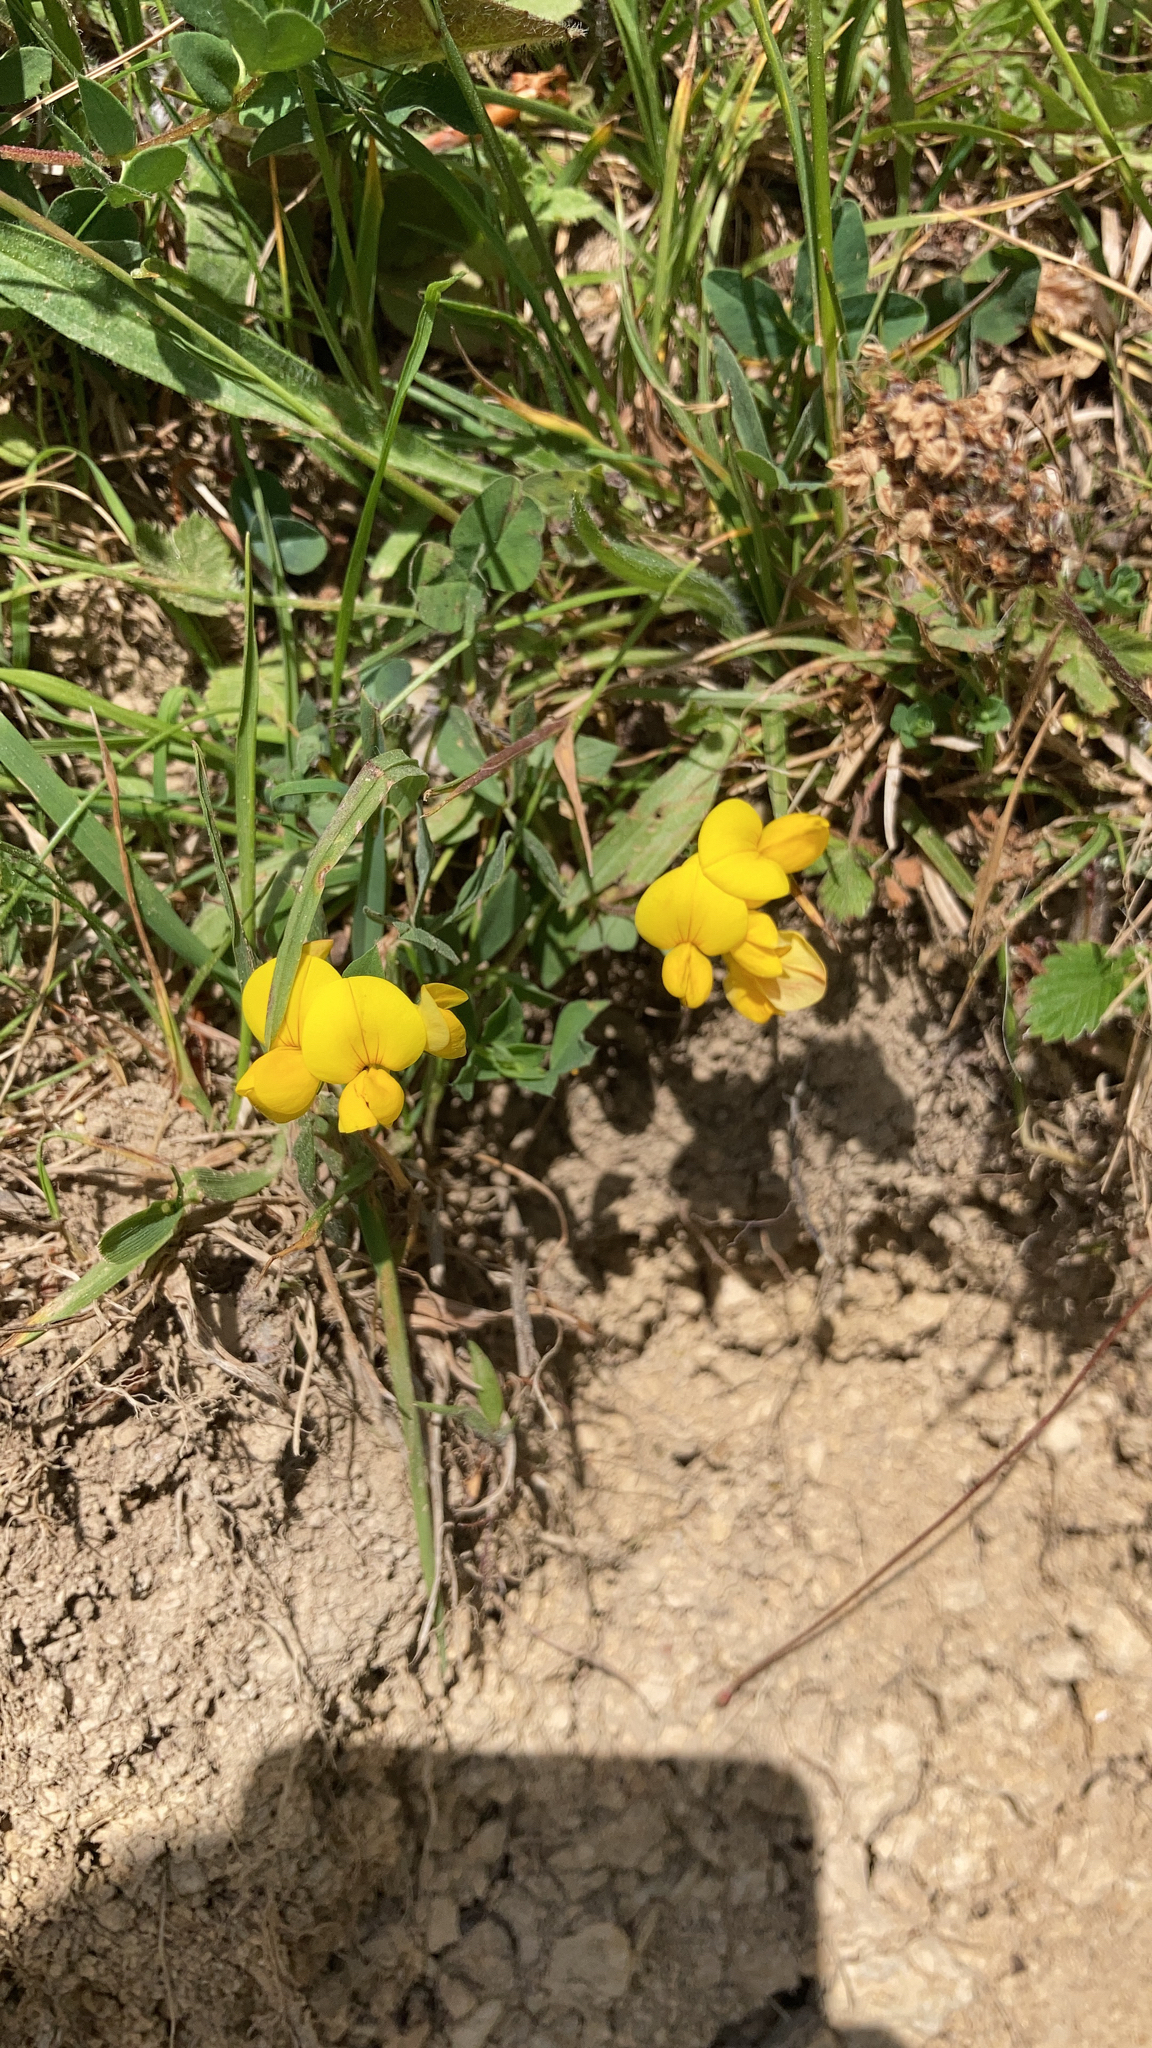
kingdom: Plantae
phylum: Tracheophyta
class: Magnoliopsida
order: Fabales
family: Fabaceae
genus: Lotus
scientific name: Lotus corniculatus
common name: Common bird's-foot-trefoil
